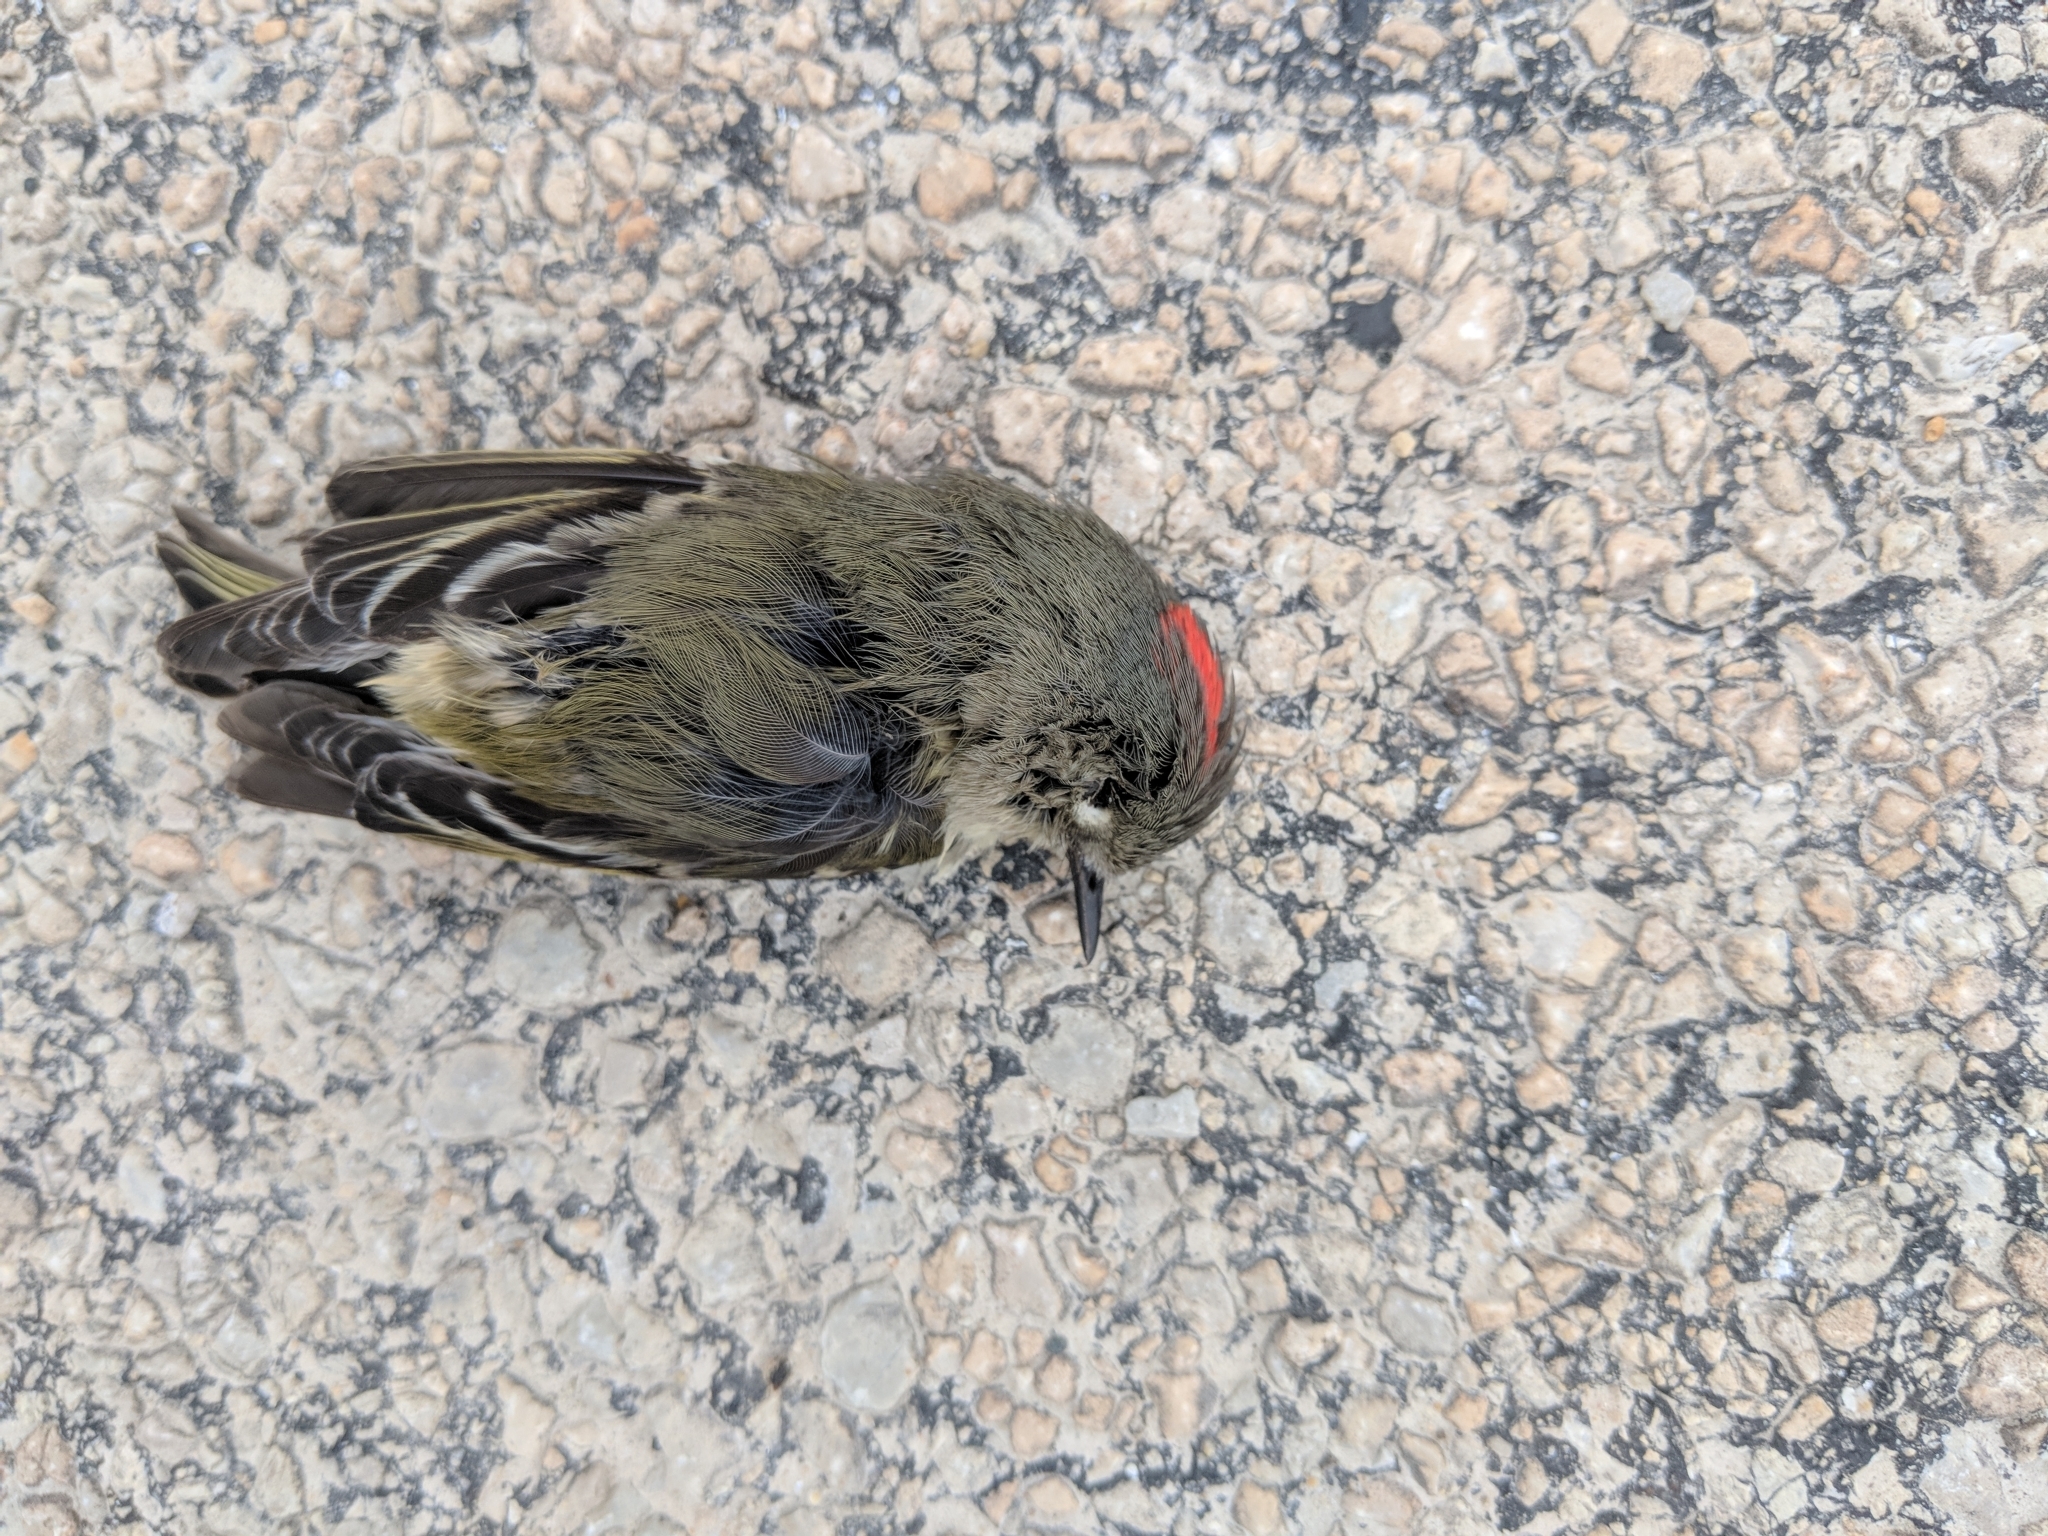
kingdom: Animalia
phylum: Chordata
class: Aves
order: Passeriformes
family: Regulidae
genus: Regulus
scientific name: Regulus calendula
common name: Ruby-crowned kinglet
